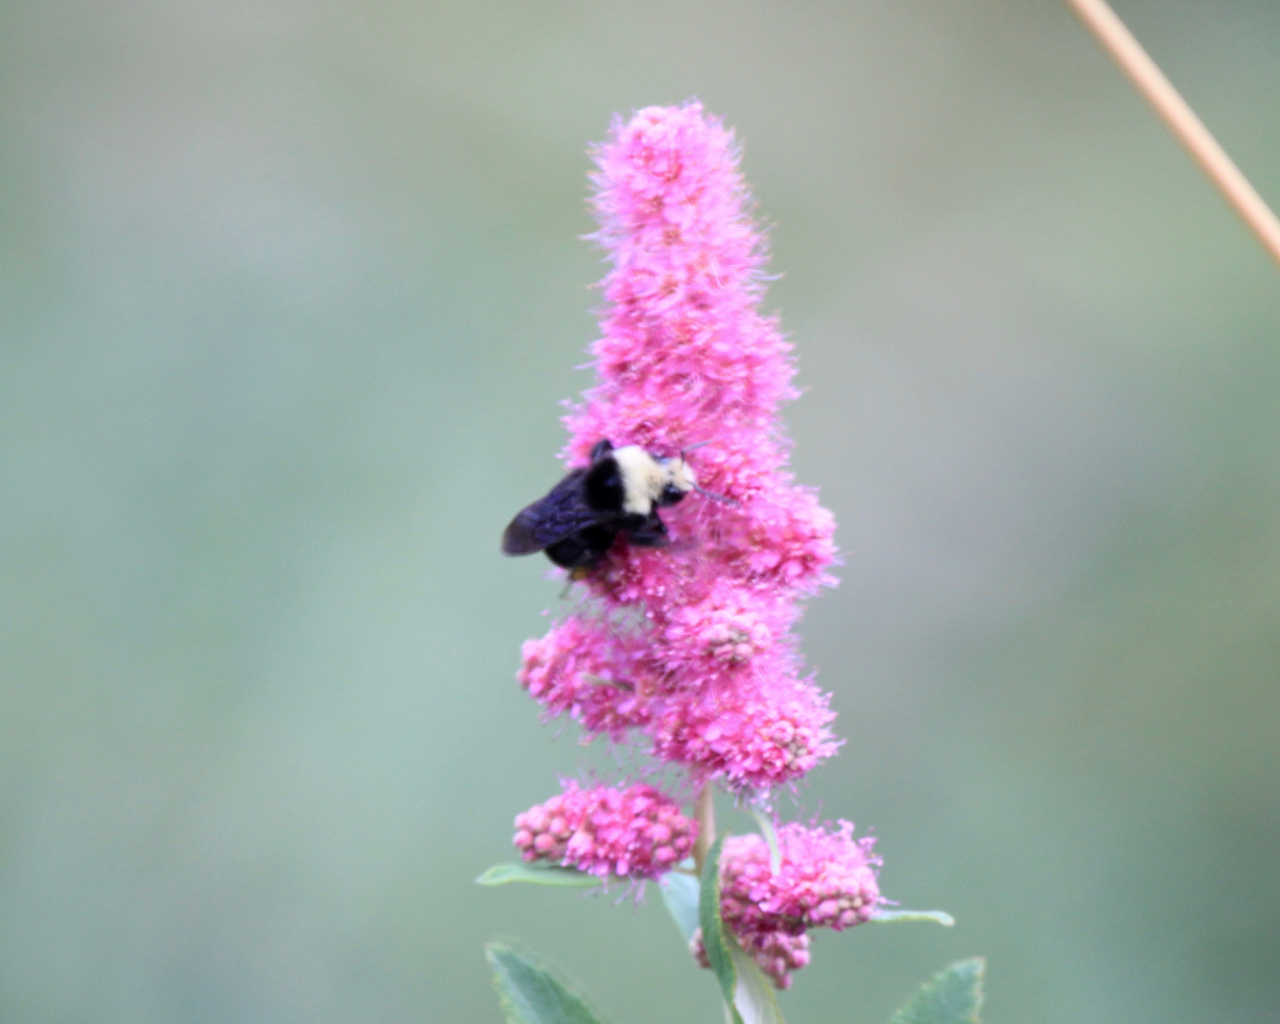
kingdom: Animalia
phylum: Arthropoda
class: Insecta
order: Hymenoptera
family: Apidae
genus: Bombus
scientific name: Bombus vosnesenskii
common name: Vosnesensky bumble bee
